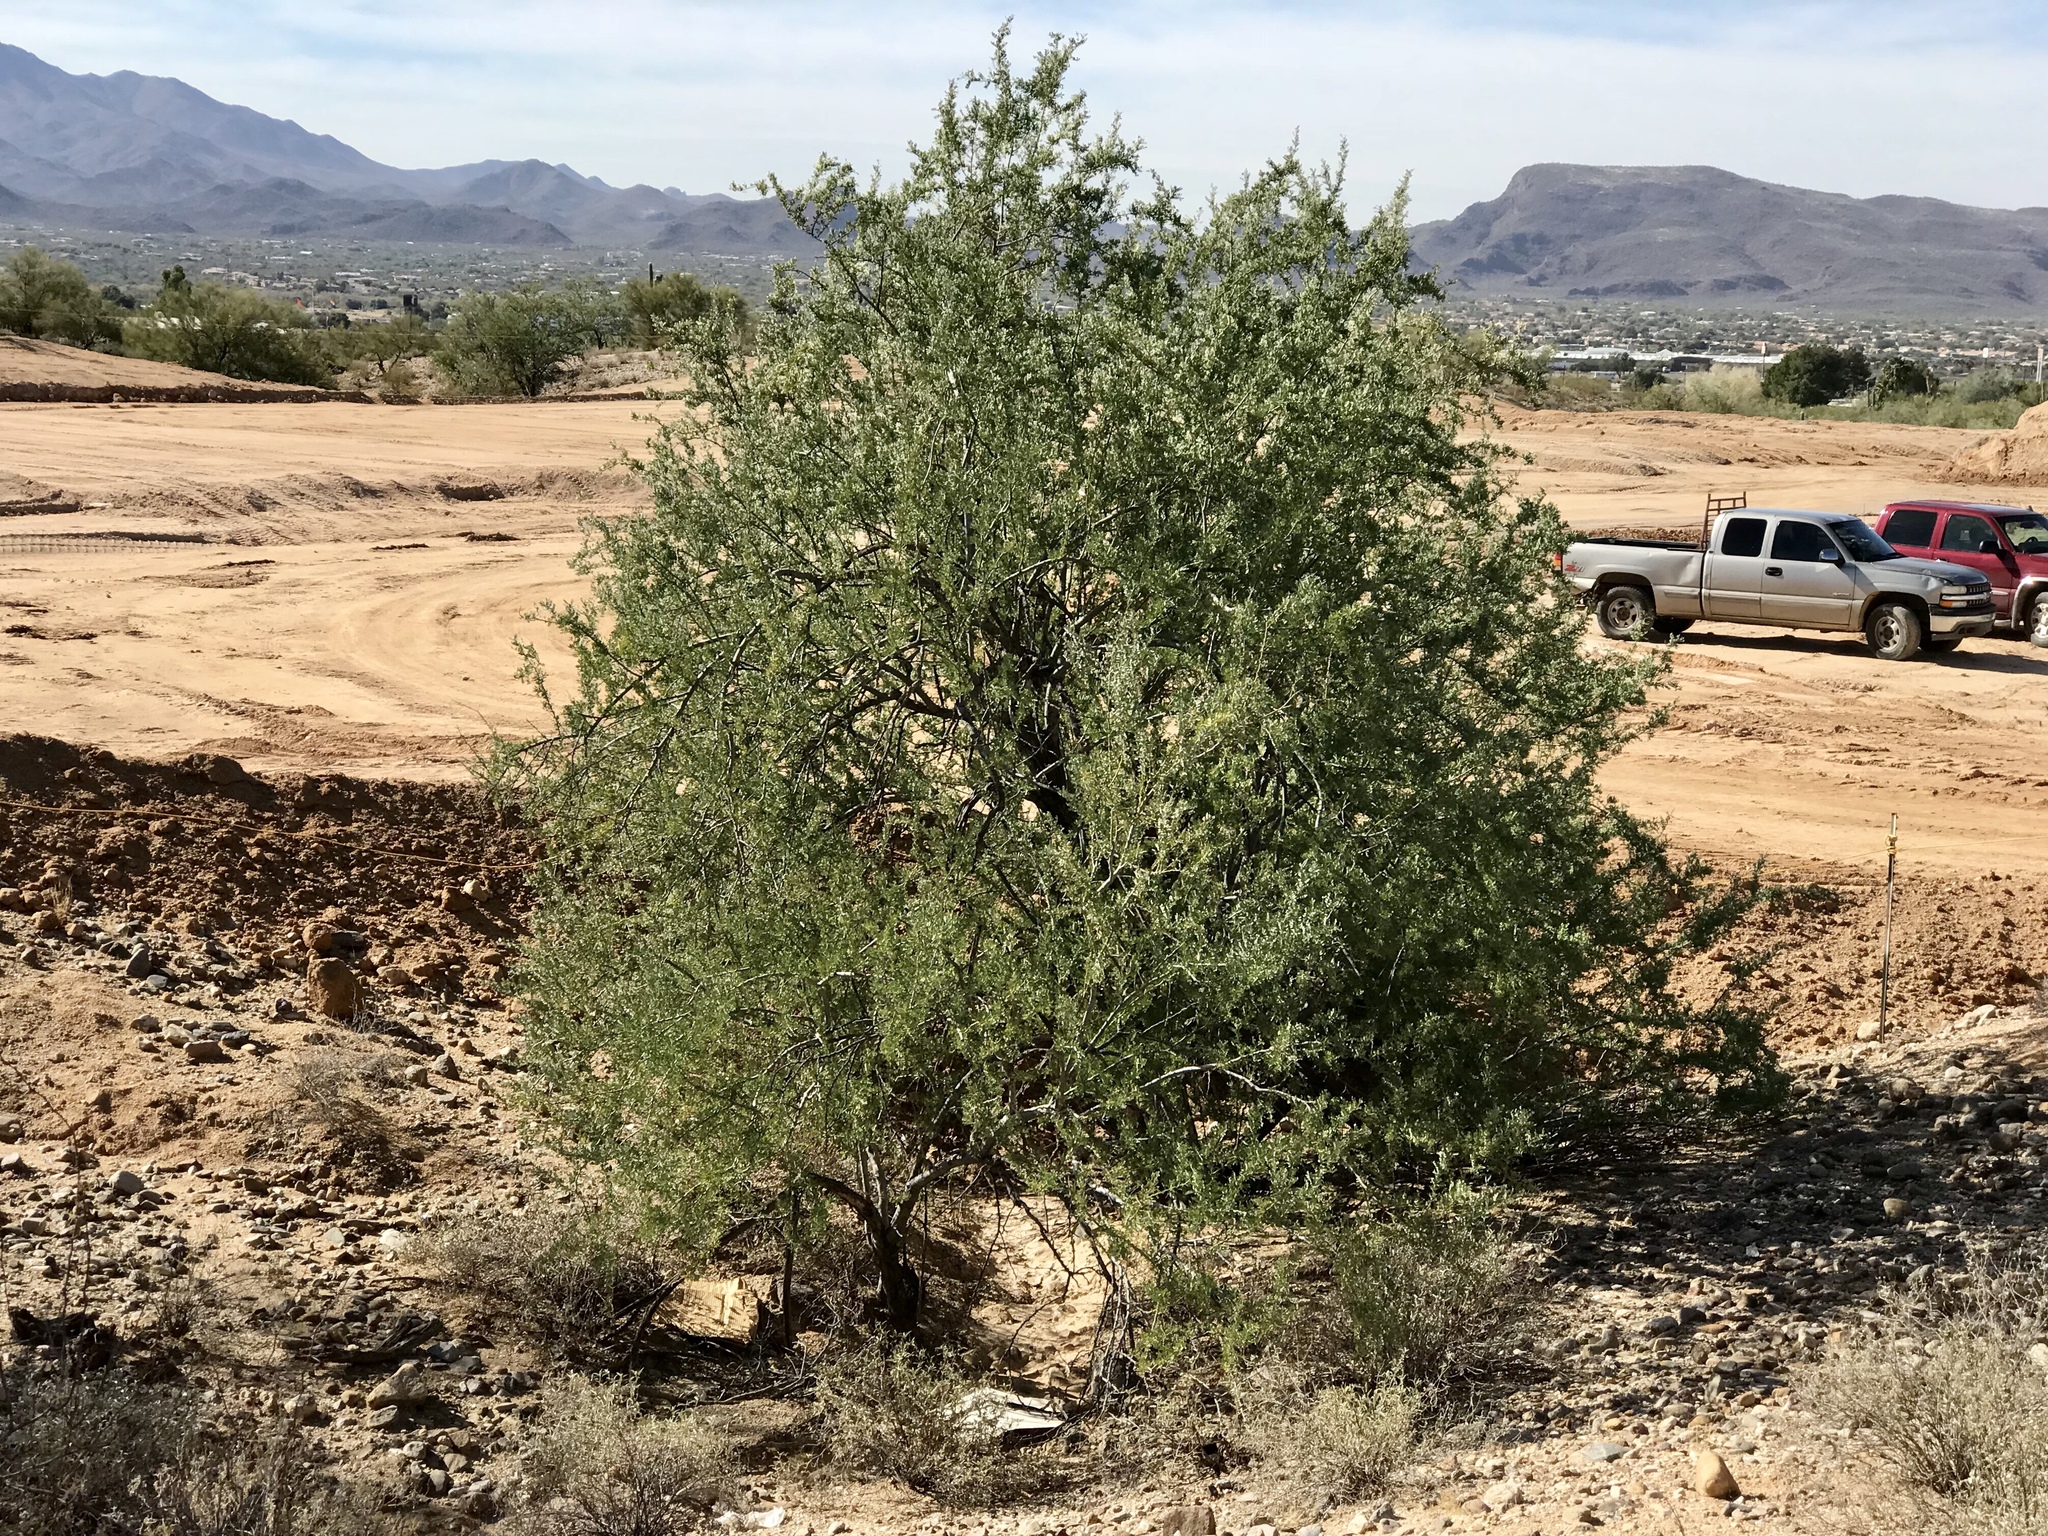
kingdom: Plantae
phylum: Tracheophyta
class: Magnoliopsida
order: Fabales
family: Fabaceae
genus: Olneya
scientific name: Olneya tesota
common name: Desert ironwood
